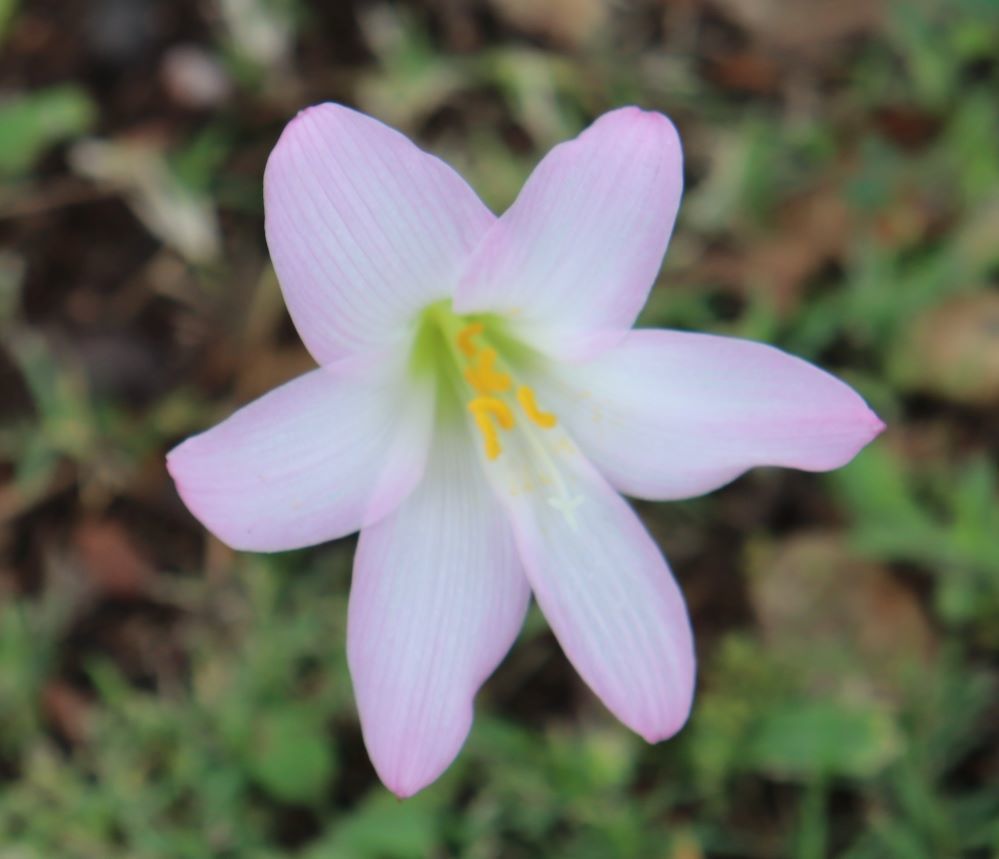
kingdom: Plantae
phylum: Tracheophyta
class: Liliopsida
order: Asparagales
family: Amaryllidaceae
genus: Zephyranthes
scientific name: Zephyranthes robusta
